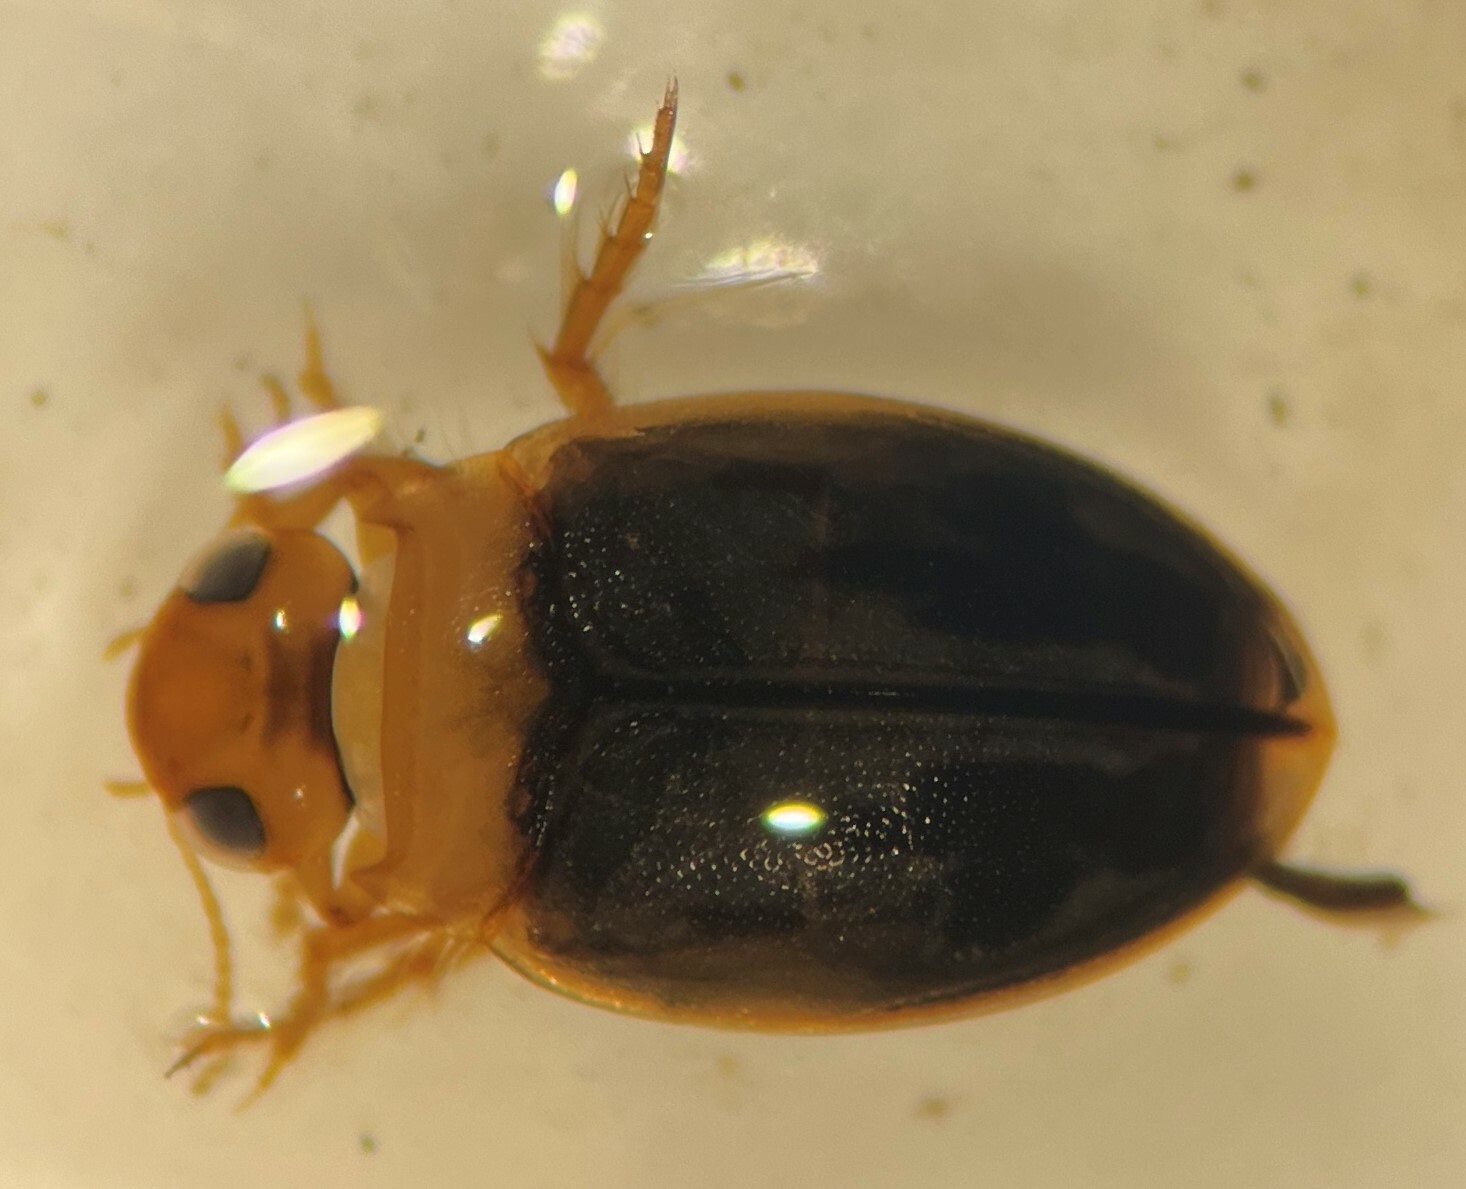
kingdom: Animalia
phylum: Arthropoda
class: Insecta
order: Coleoptera
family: Dytiscidae
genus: Hygrotus
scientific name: Hygrotus lutescens
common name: Predaceous diving beetle
